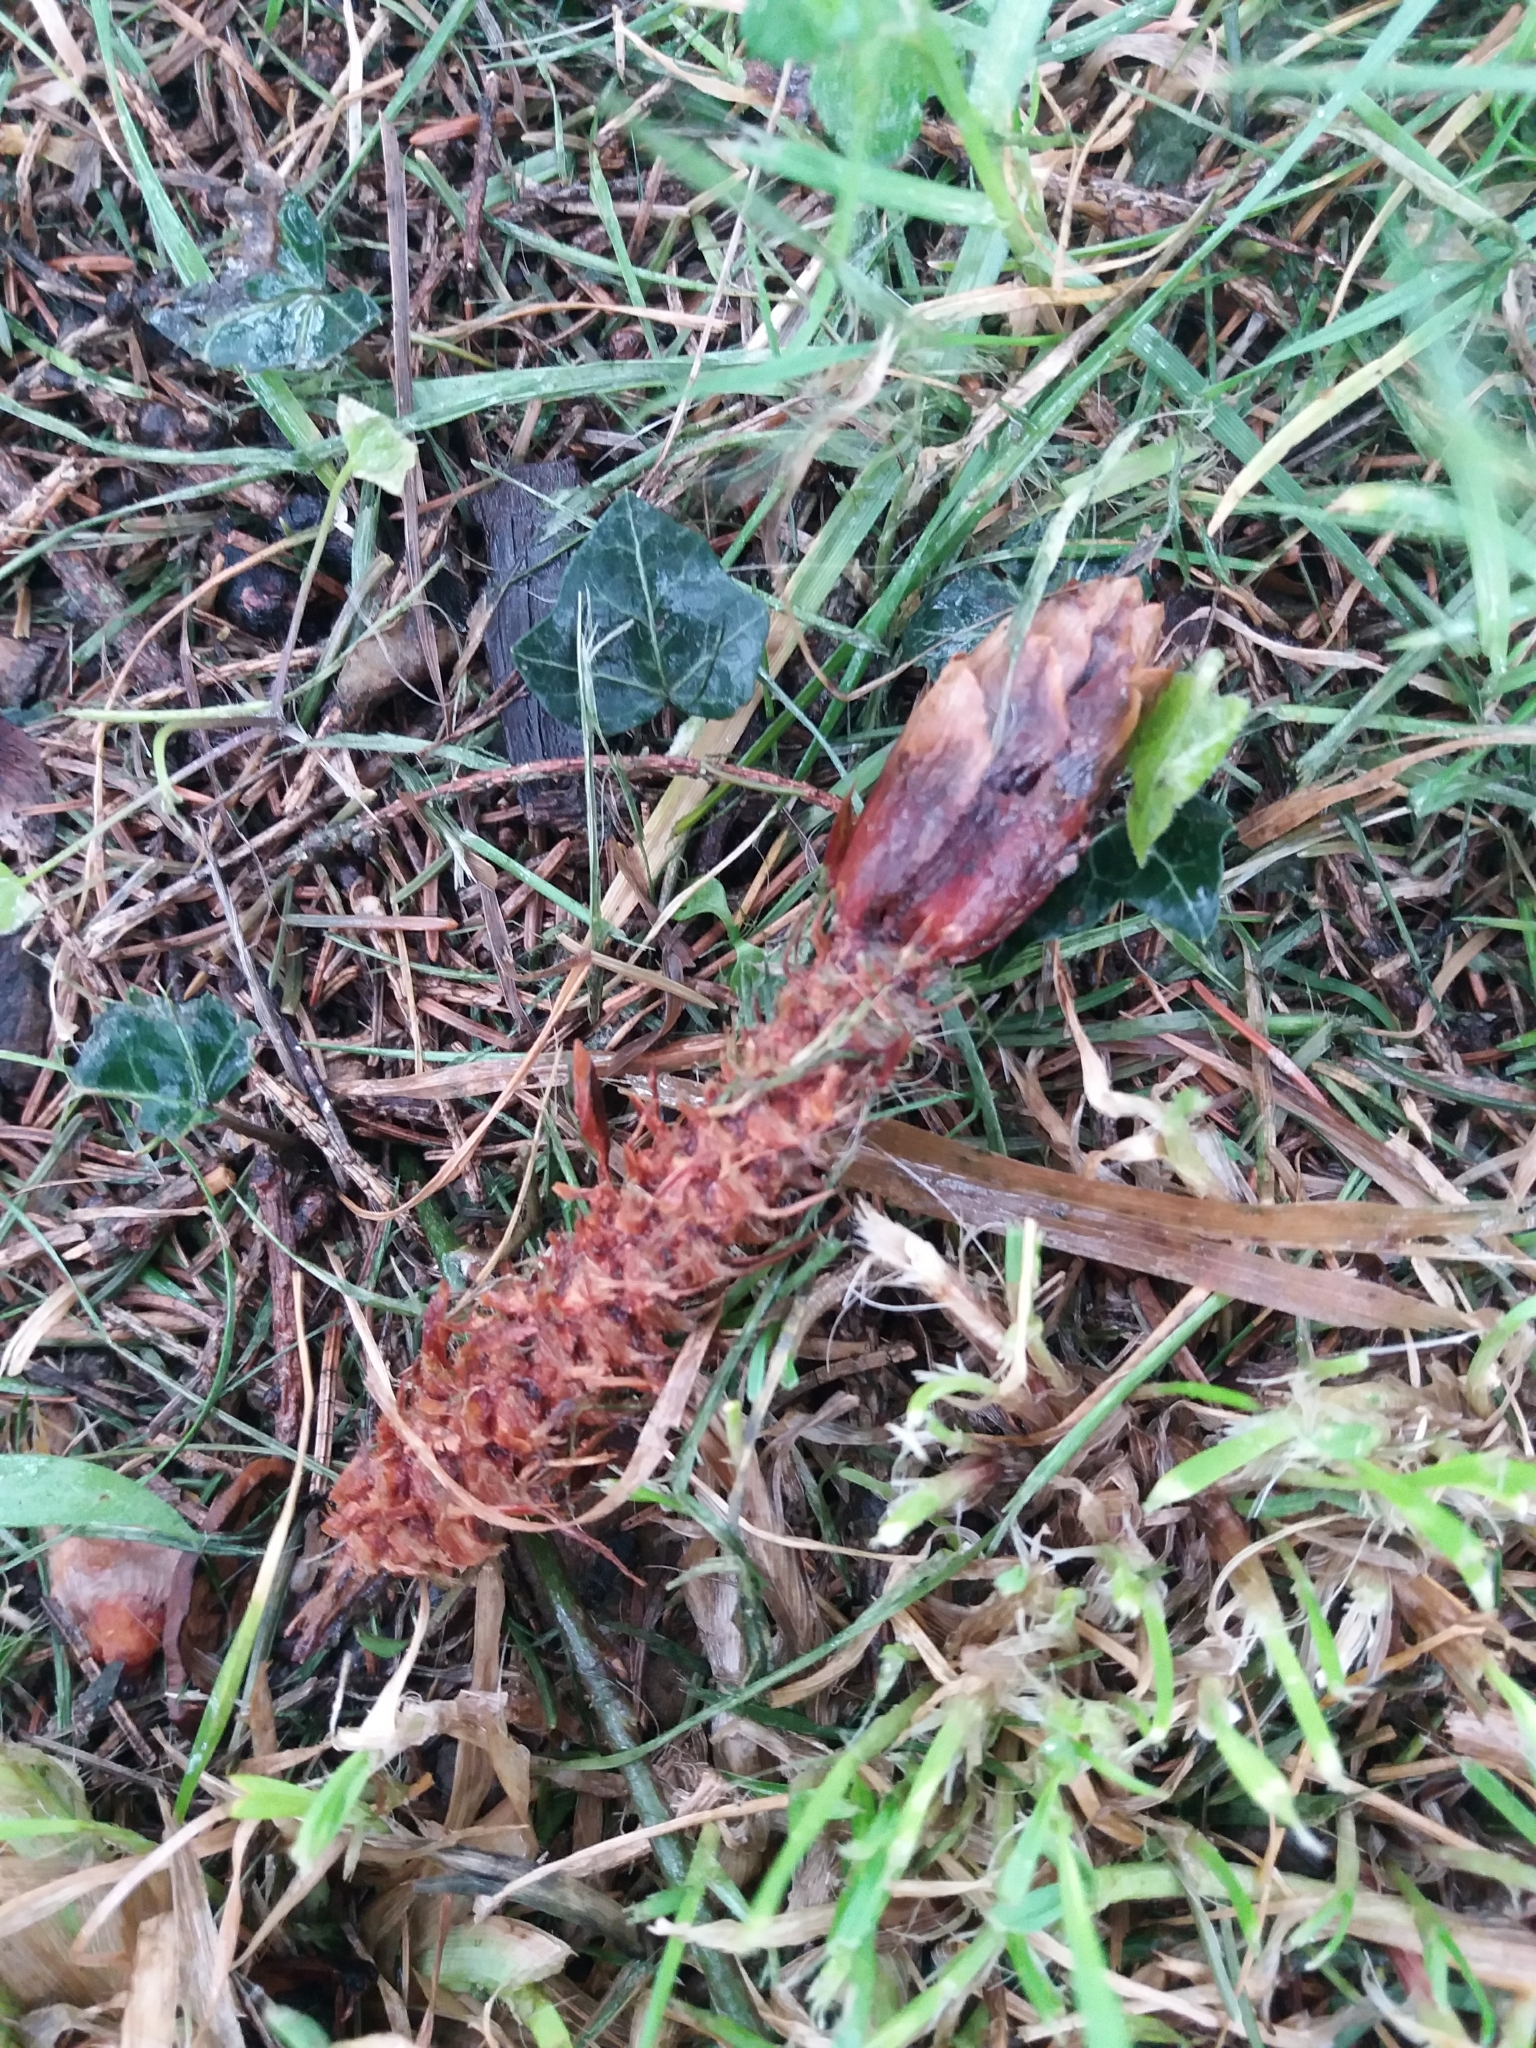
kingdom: Animalia
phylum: Chordata
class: Mammalia
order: Rodentia
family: Sciuridae
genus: Sciurus
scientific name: Sciurus vulgaris
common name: Eurasian red squirrel
